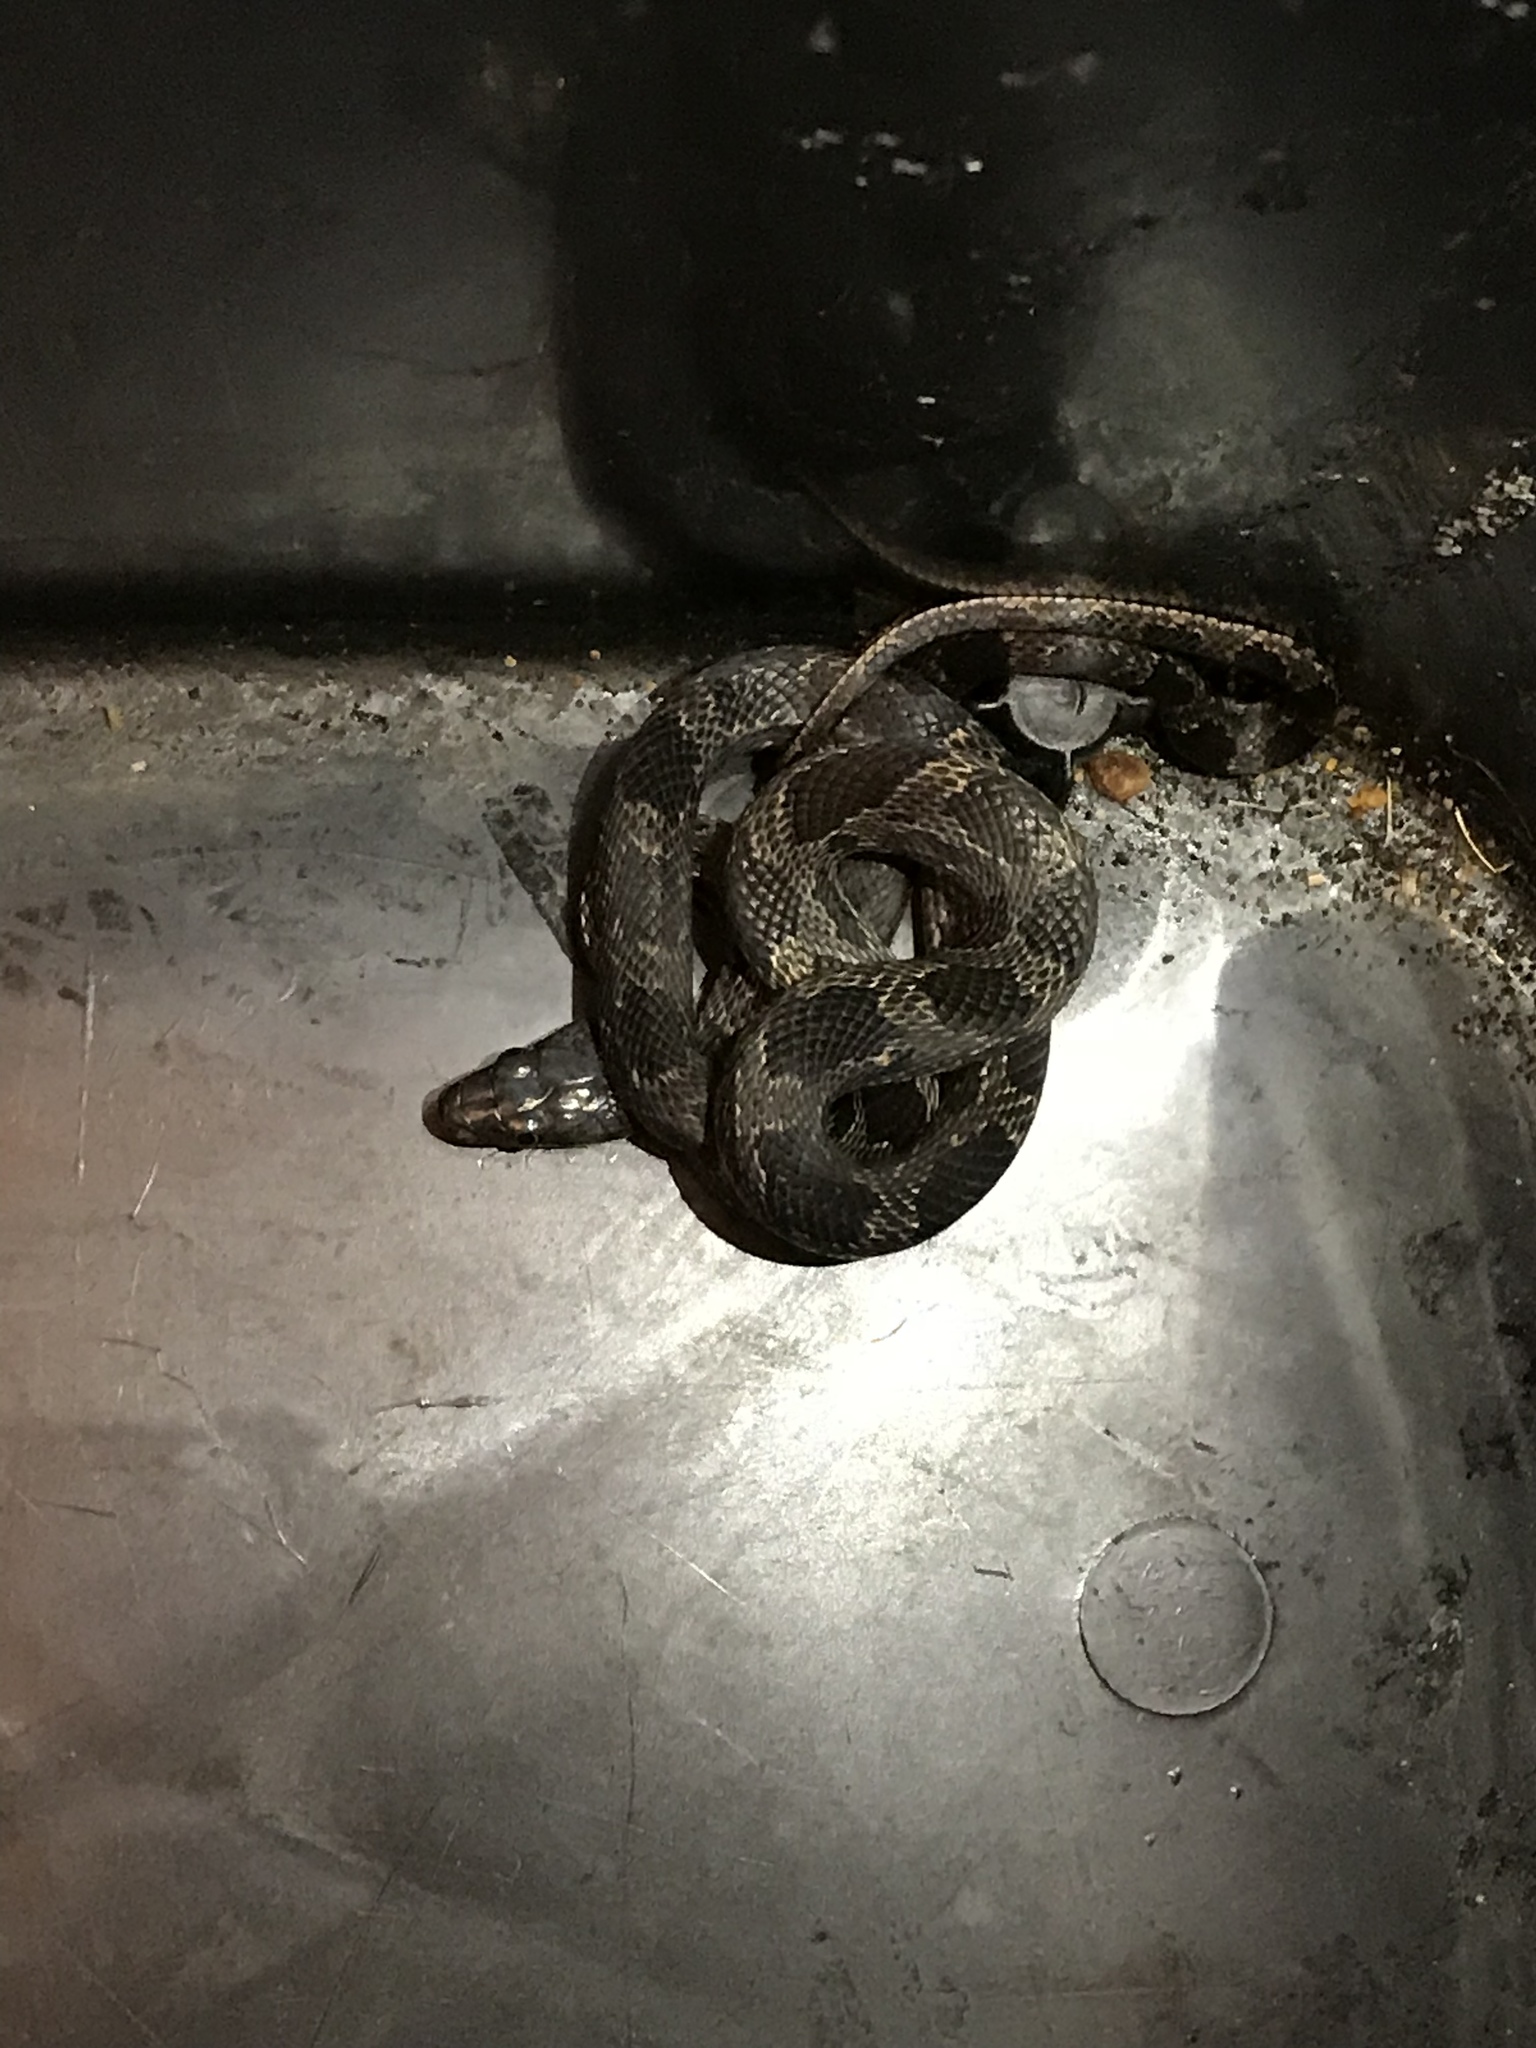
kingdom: Animalia
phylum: Chordata
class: Squamata
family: Colubridae
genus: Pantherophis
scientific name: Pantherophis alleghaniensis
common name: Eastern rat snake
